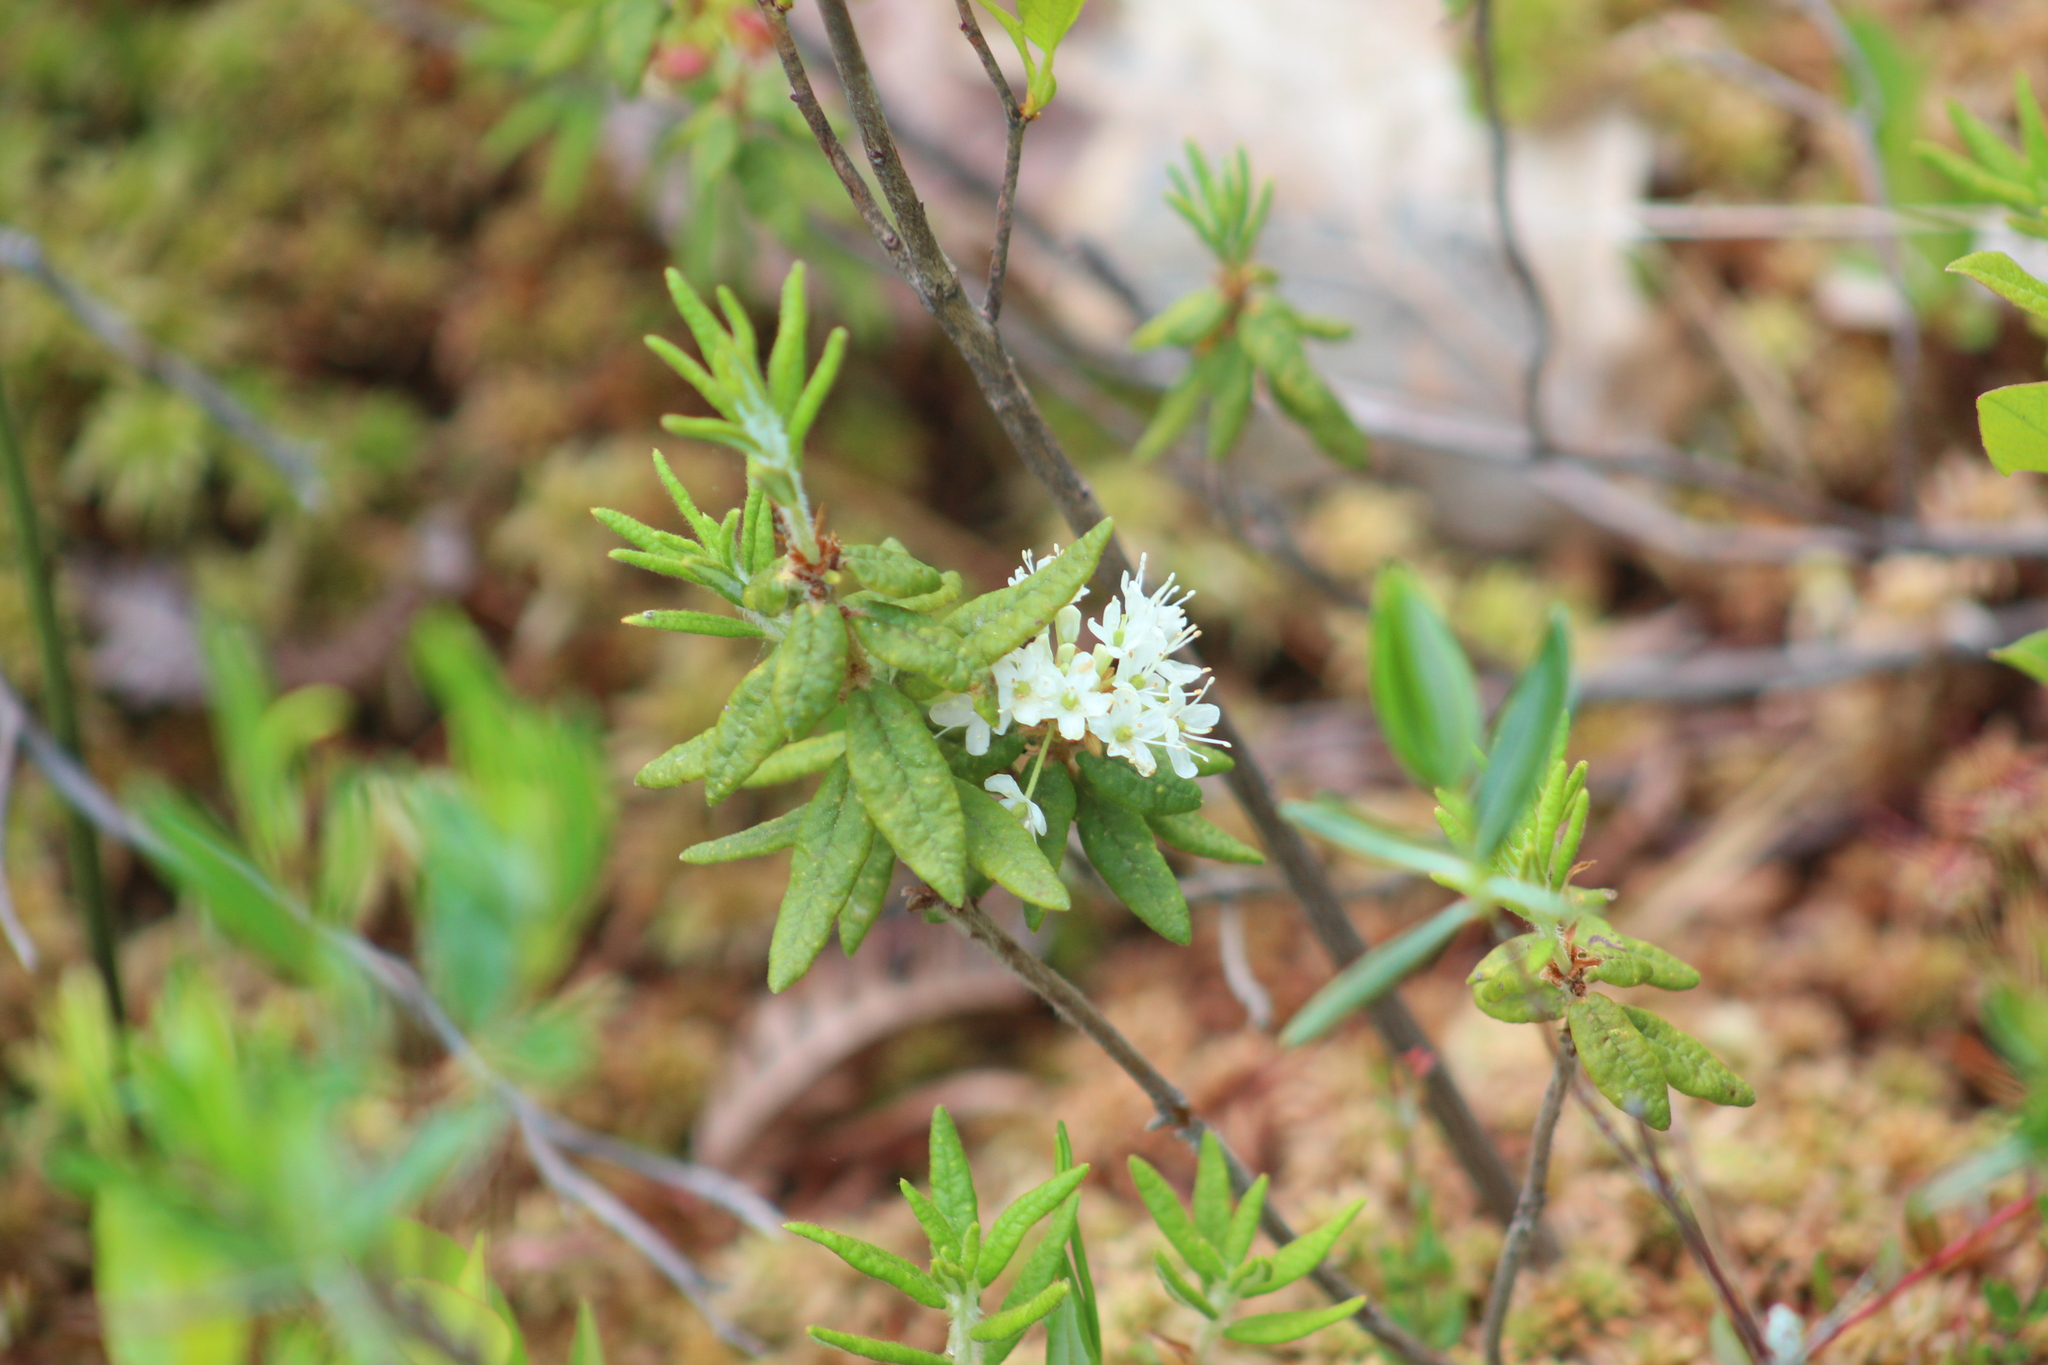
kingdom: Plantae
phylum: Tracheophyta
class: Magnoliopsida
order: Ericales
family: Ericaceae
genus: Rhododendron
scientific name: Rhododendron groenlandicum
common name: Bog labrador tea
